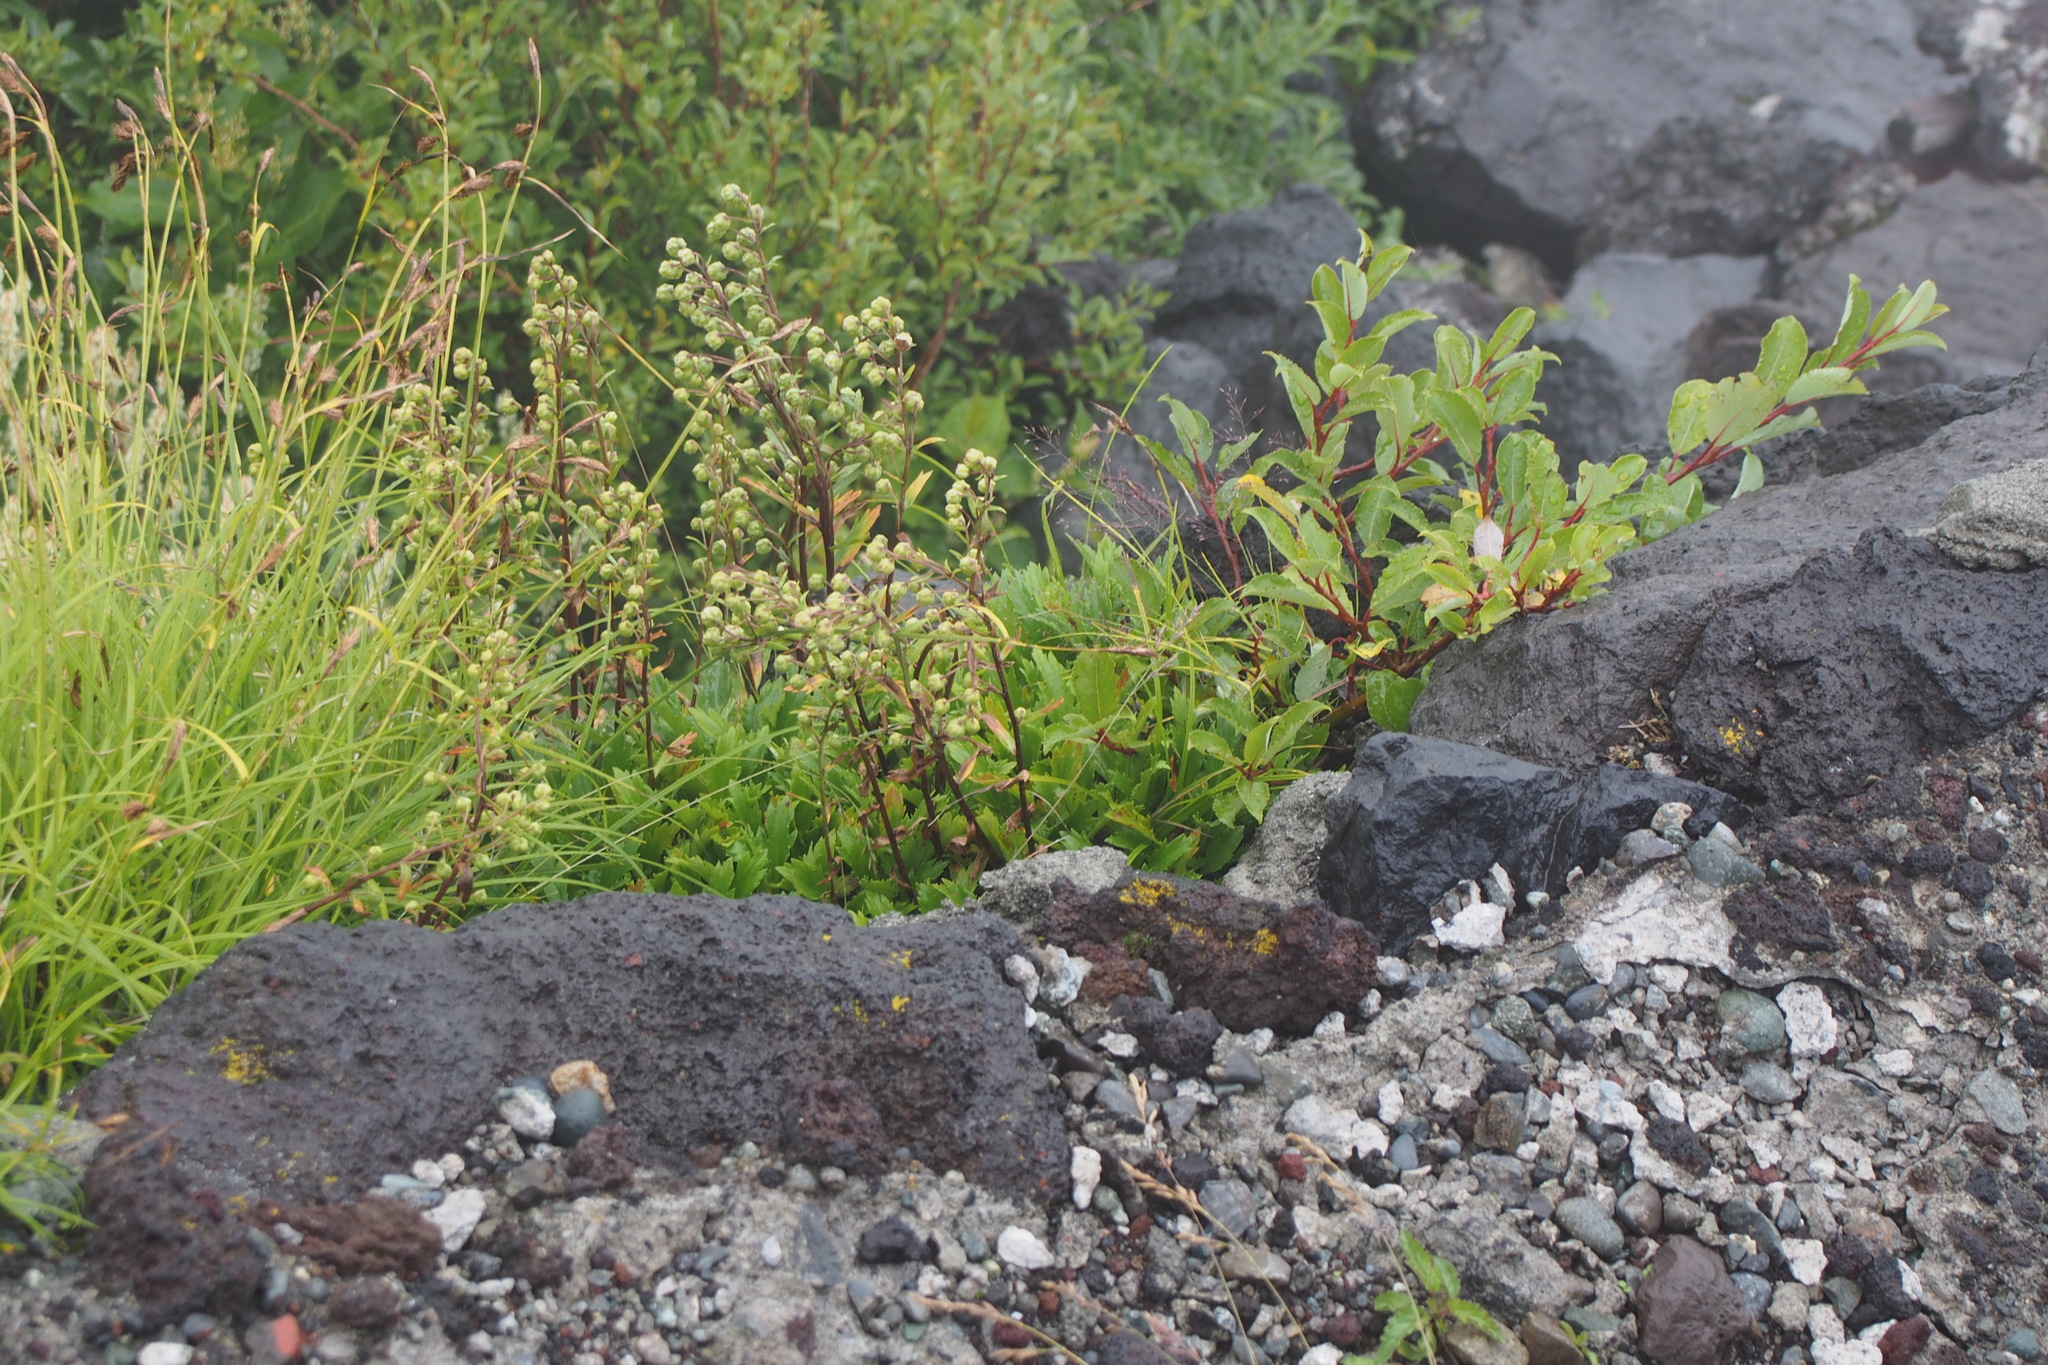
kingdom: Plantae
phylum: Tracheophyta
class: Magnoliopsida
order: Asterales
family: Asteraceae
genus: Artemisia
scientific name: Artemisia pedunculosa
